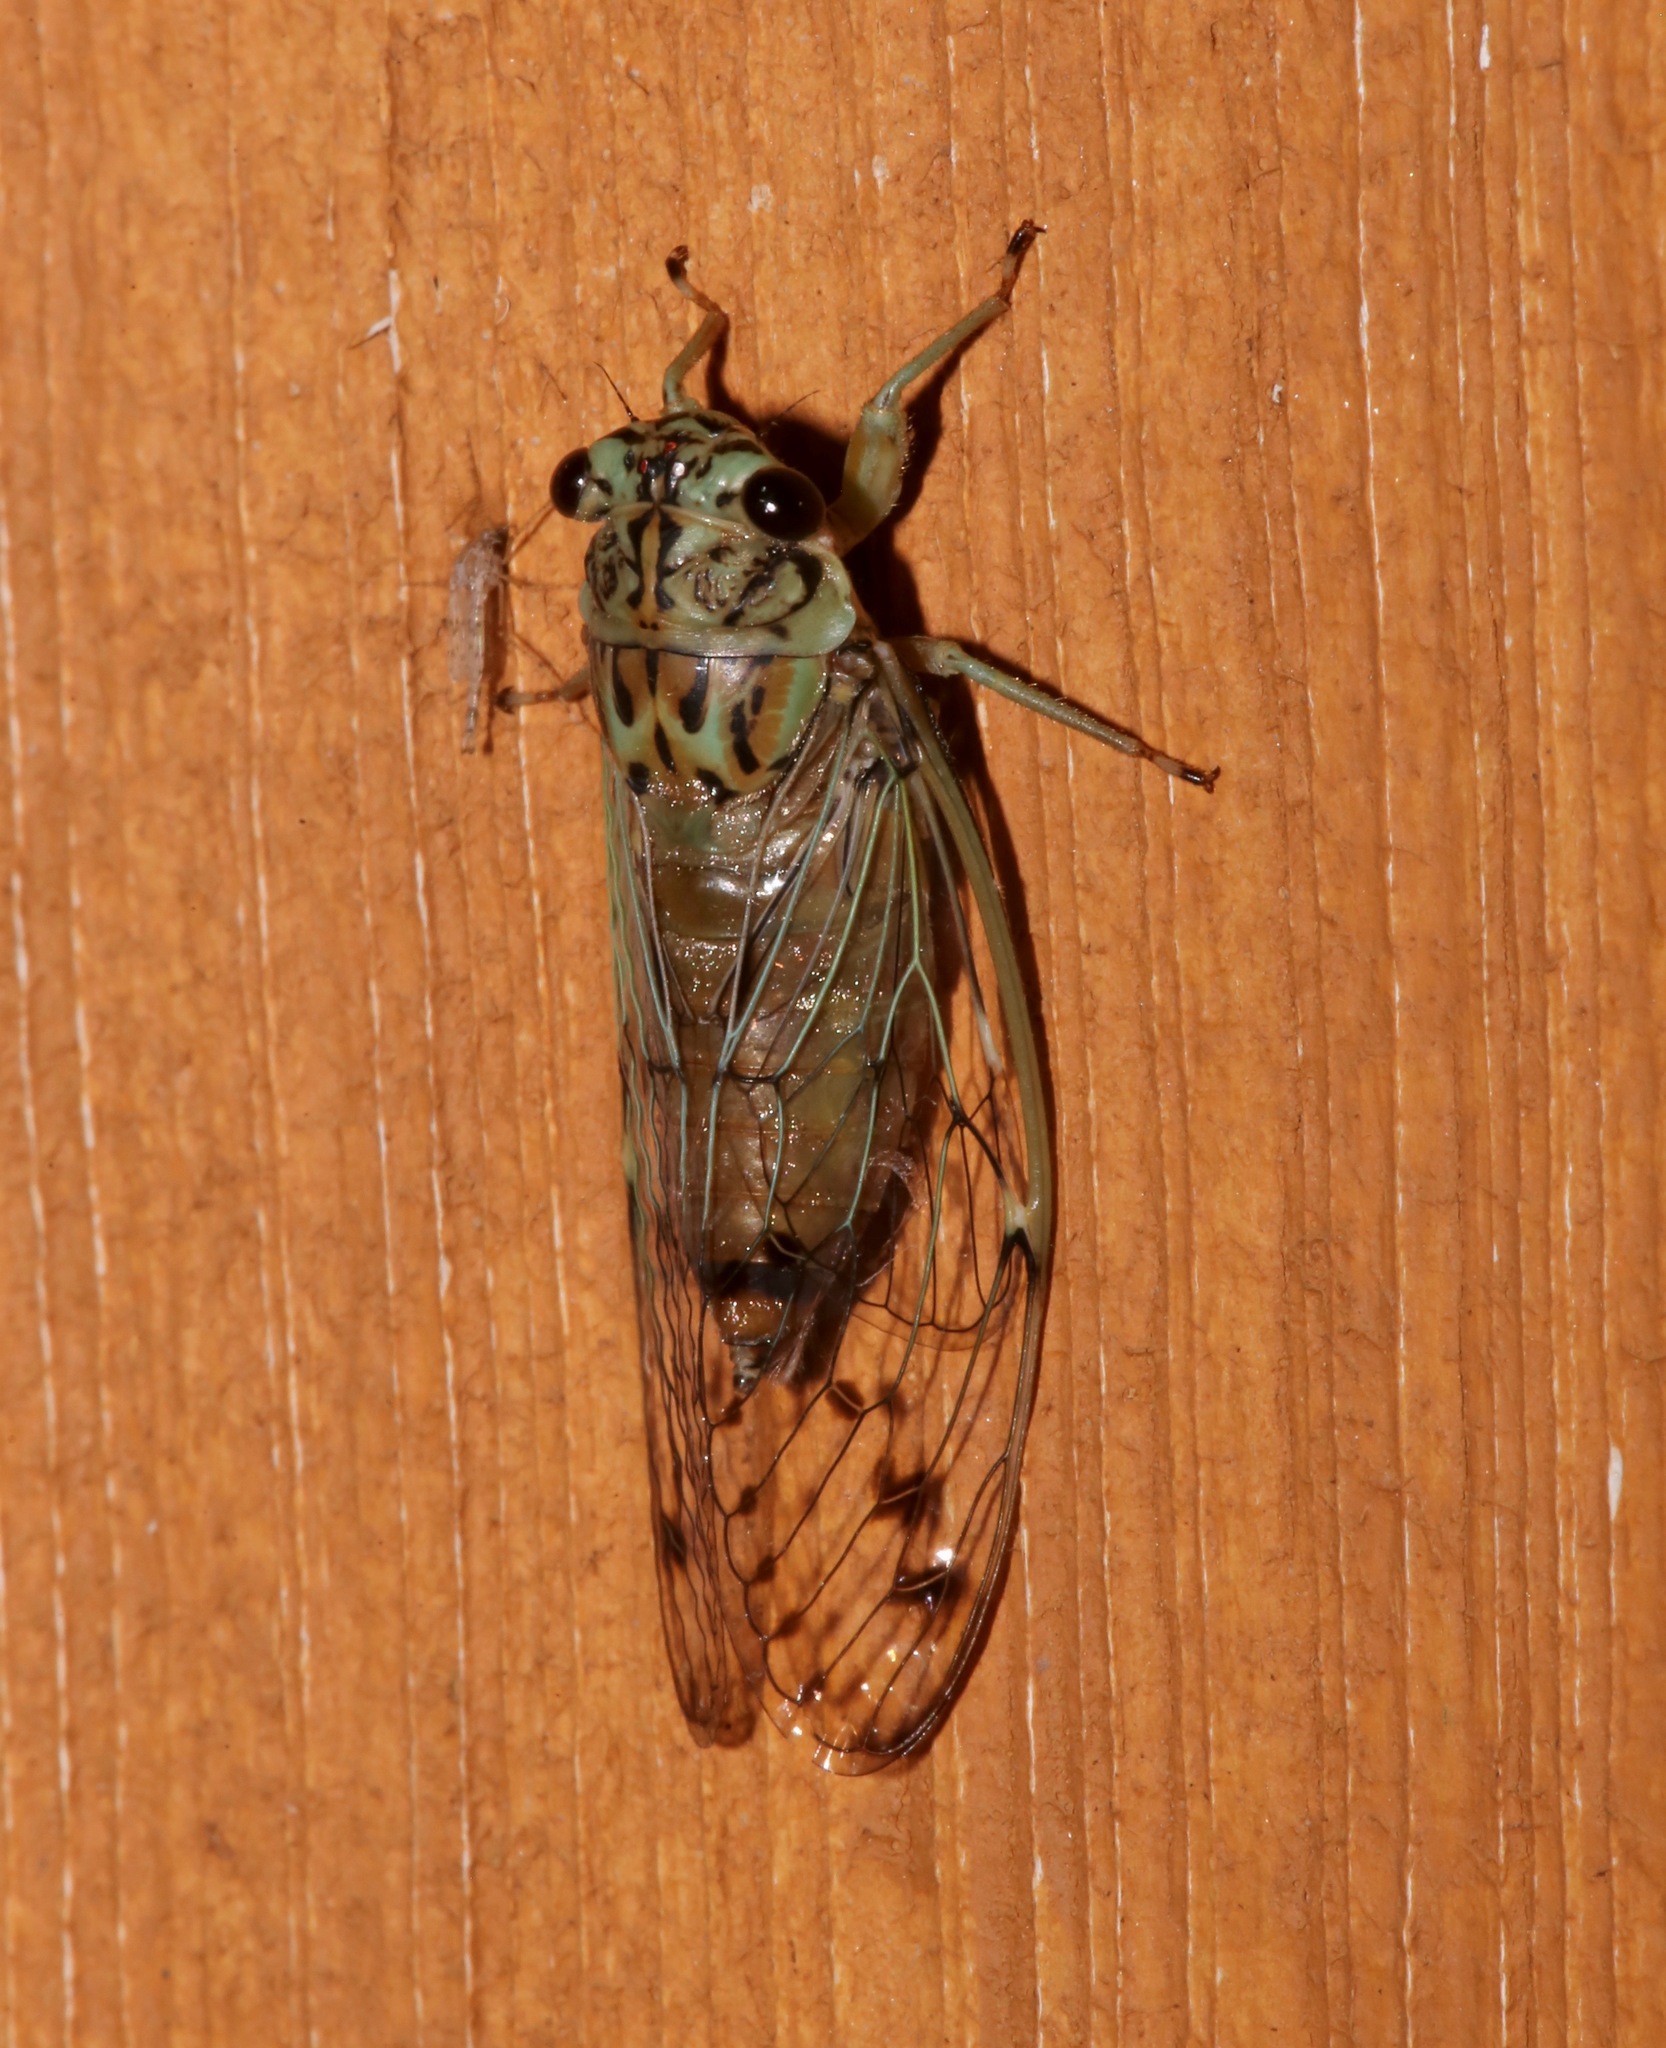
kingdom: Animalia
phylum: Arthropoda
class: Insecta
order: Hemiptera
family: Cicadidae
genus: Neocicada
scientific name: Neocicada hieroglyphica
